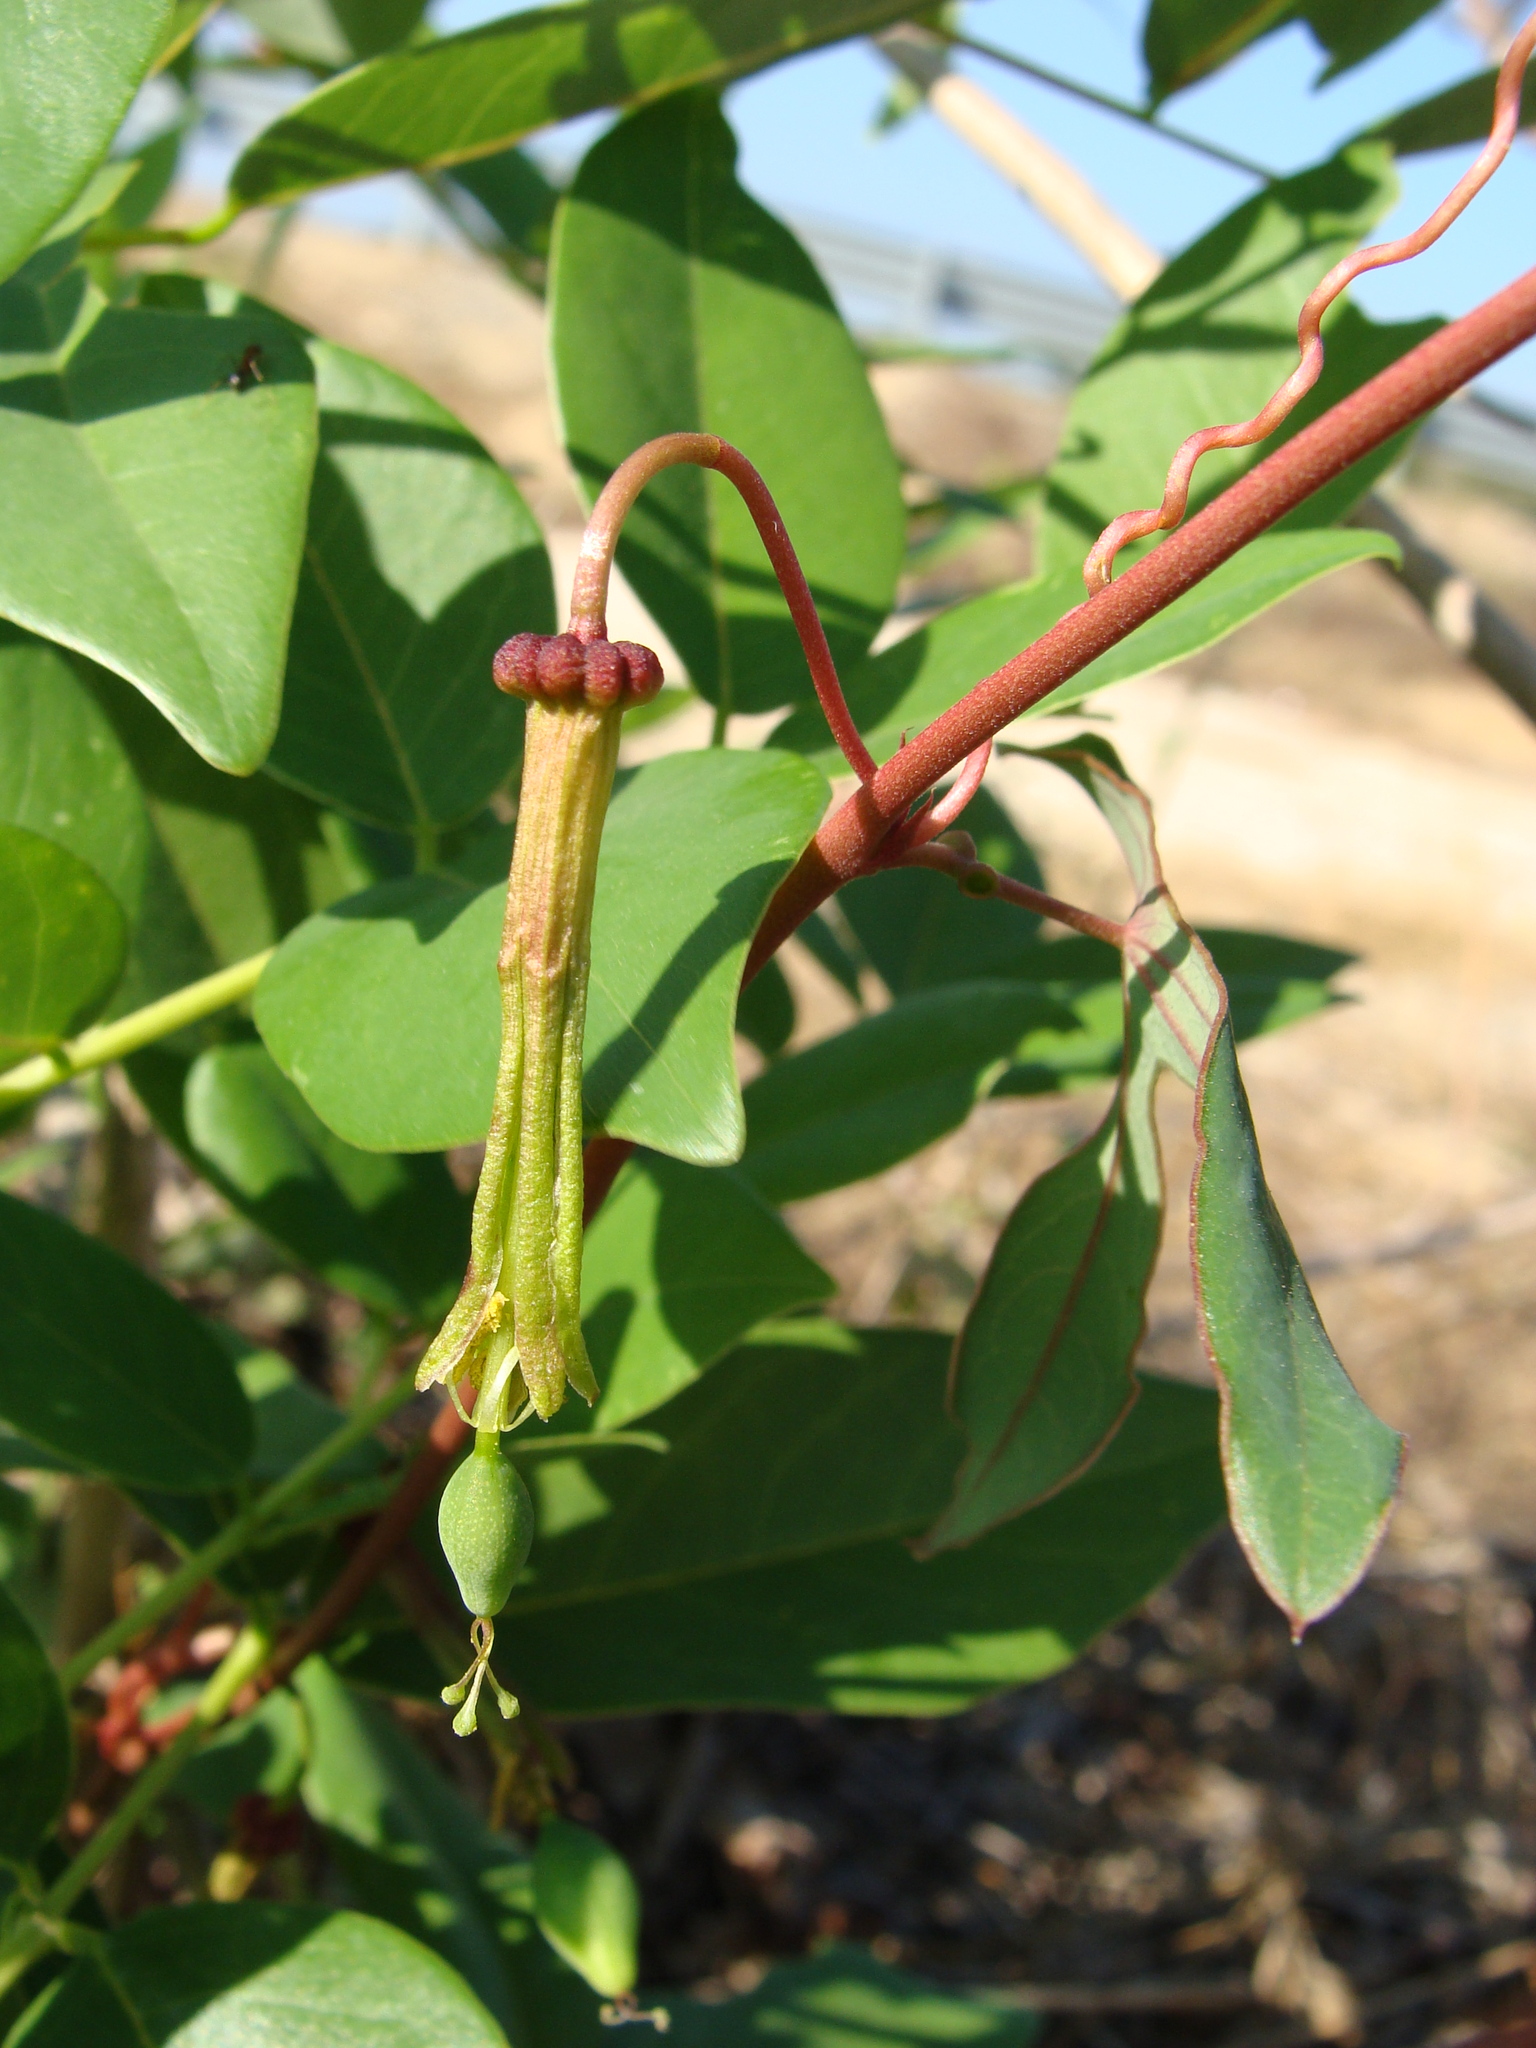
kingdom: Plantae
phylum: Tracheophyta
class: Magnoliopsida
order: Malpighiales
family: Passifloraceae
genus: Passiflora
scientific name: Passiflora viridiflora
